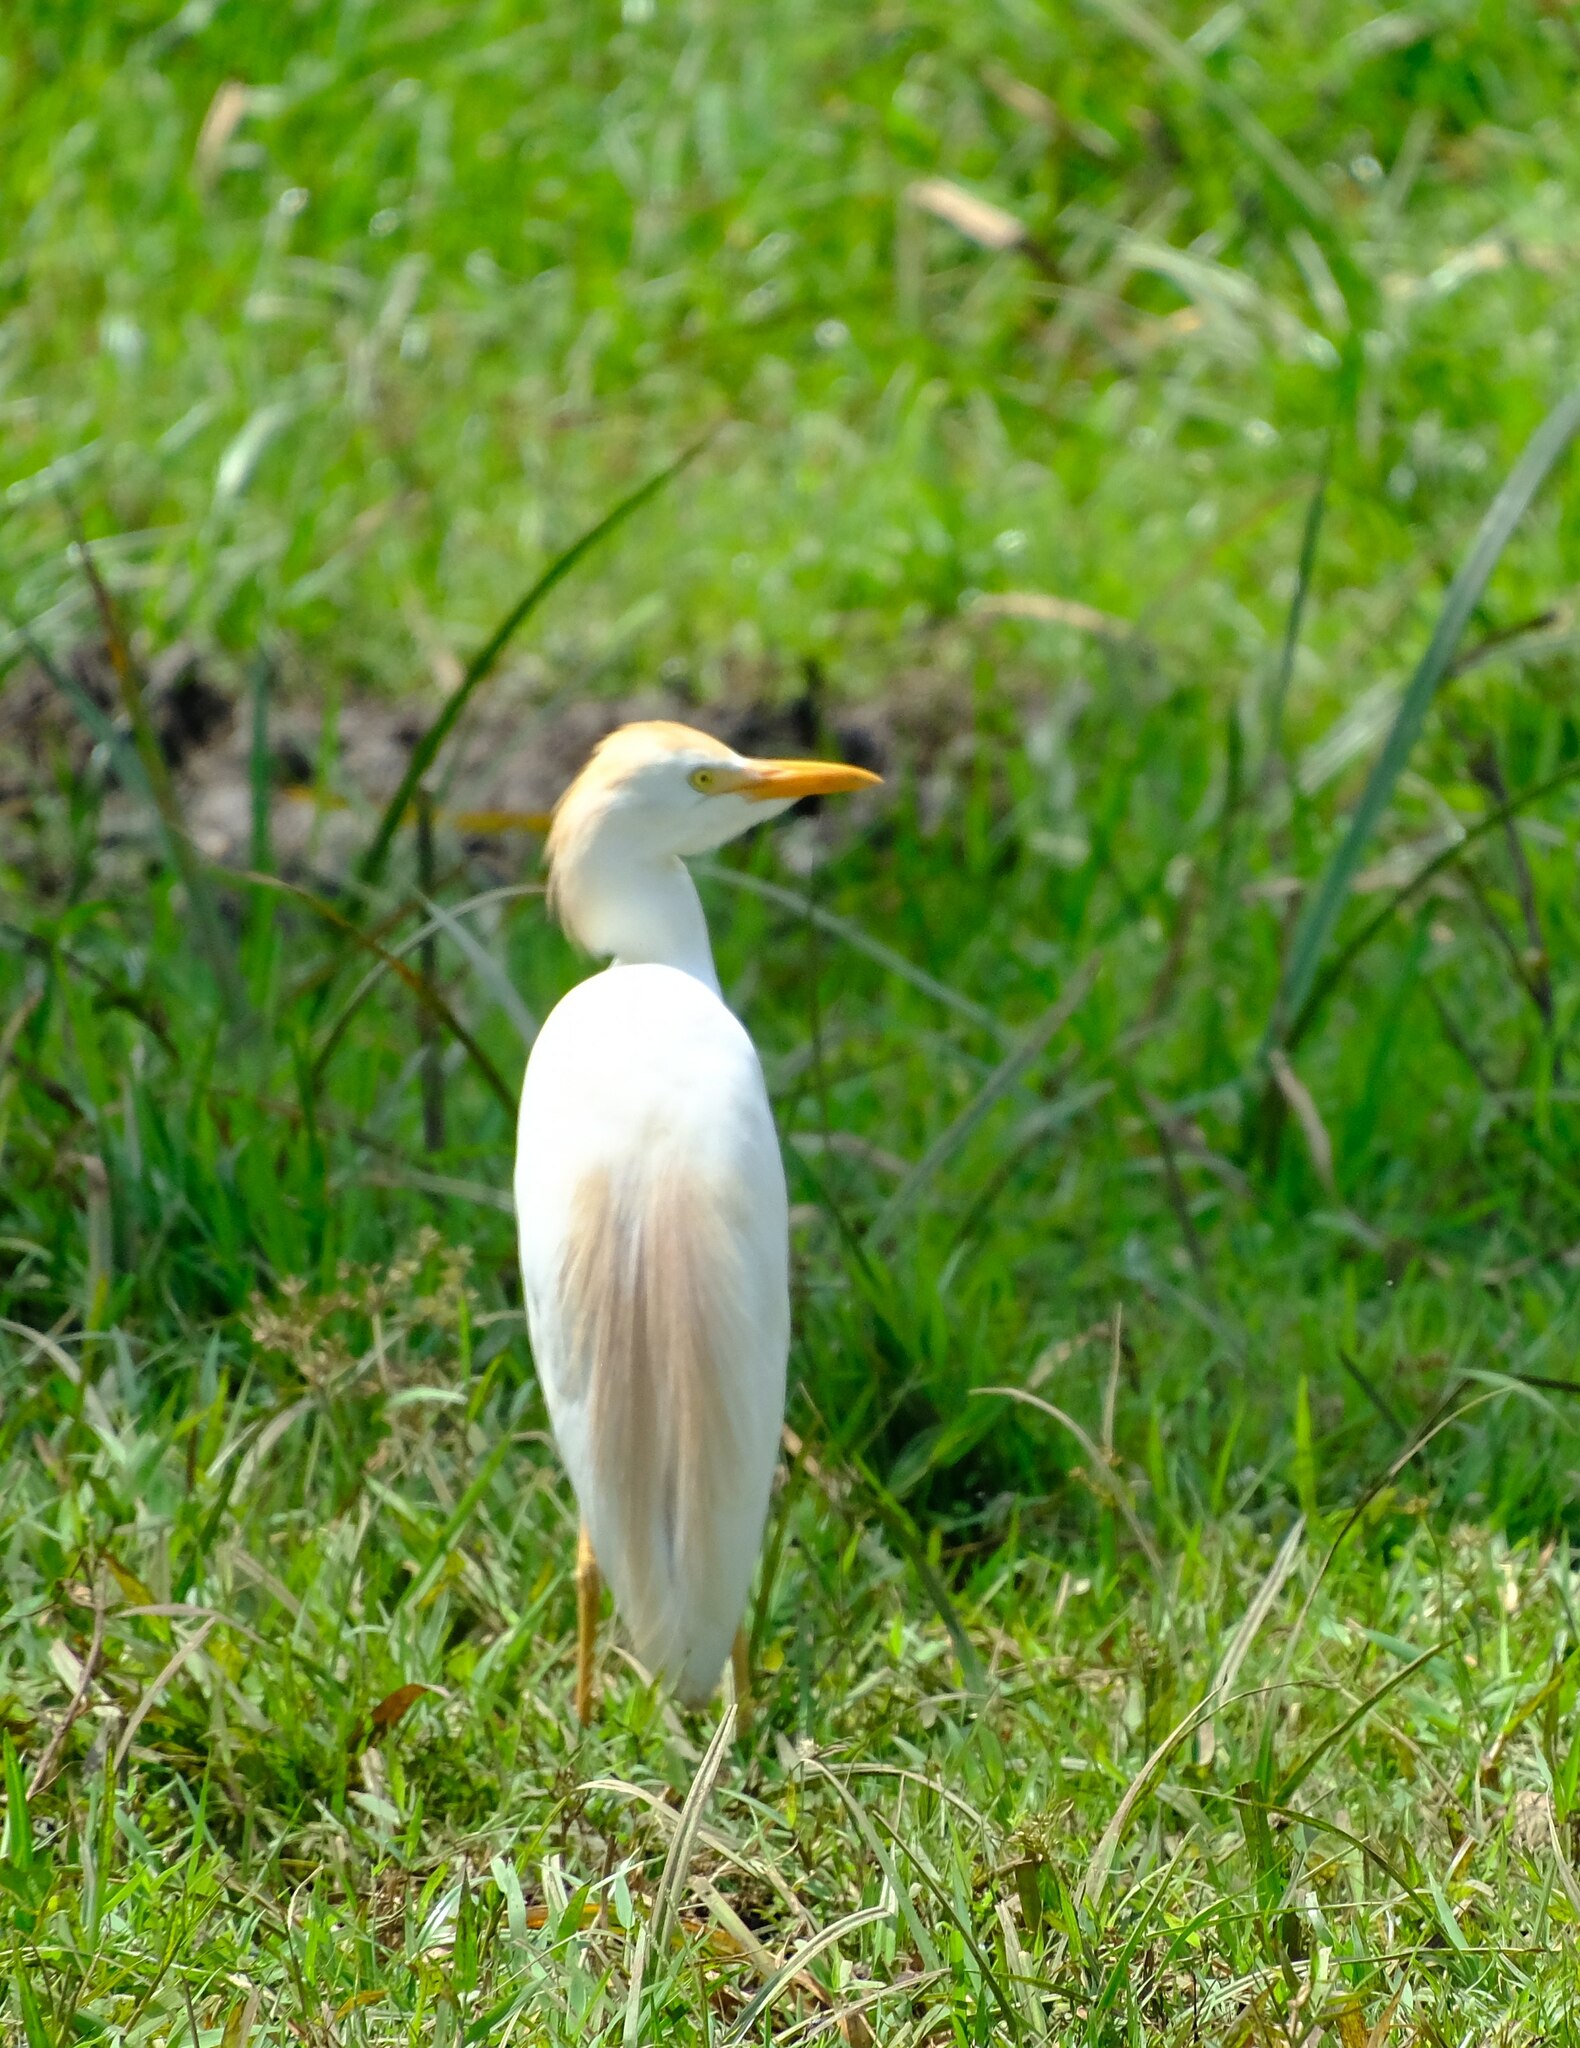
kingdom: Animalia
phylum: Chordata
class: Aves
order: Pelecaniformes
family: Ardeidae
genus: Bubulcus
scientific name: Bubulcus ibis
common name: Cattle egret
